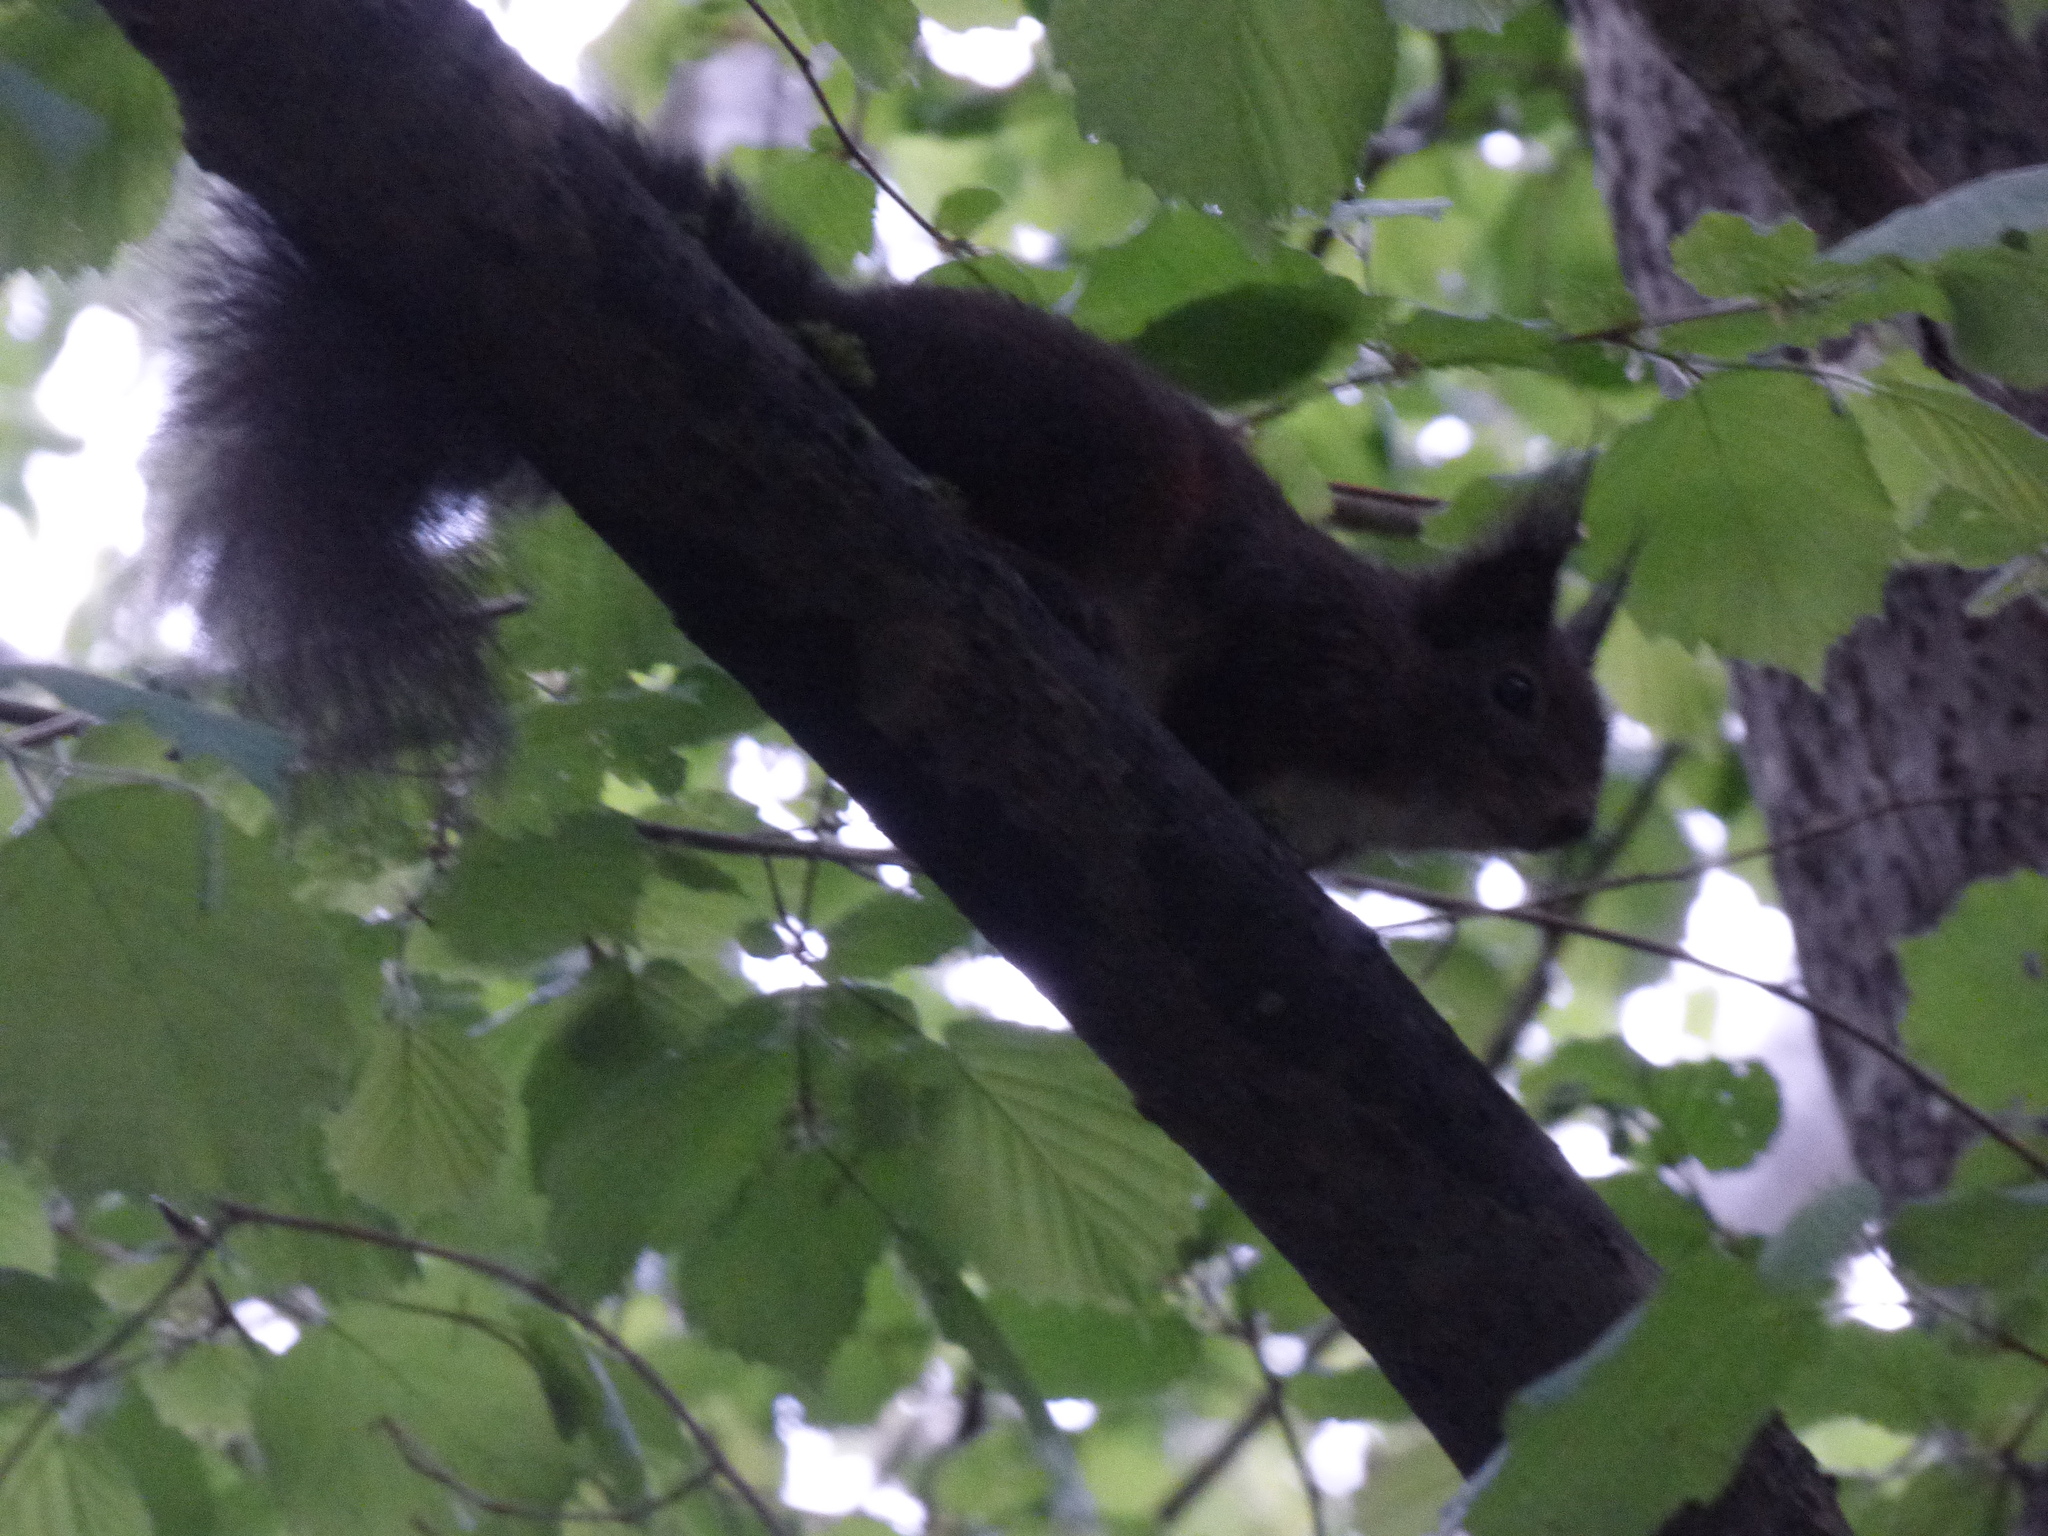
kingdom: Animalia
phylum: Chordata
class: Mammalia
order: Rodentia
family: Sciuridae
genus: Sciurus
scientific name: Sciurus vulgaris
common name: Eurasian red squirrel
